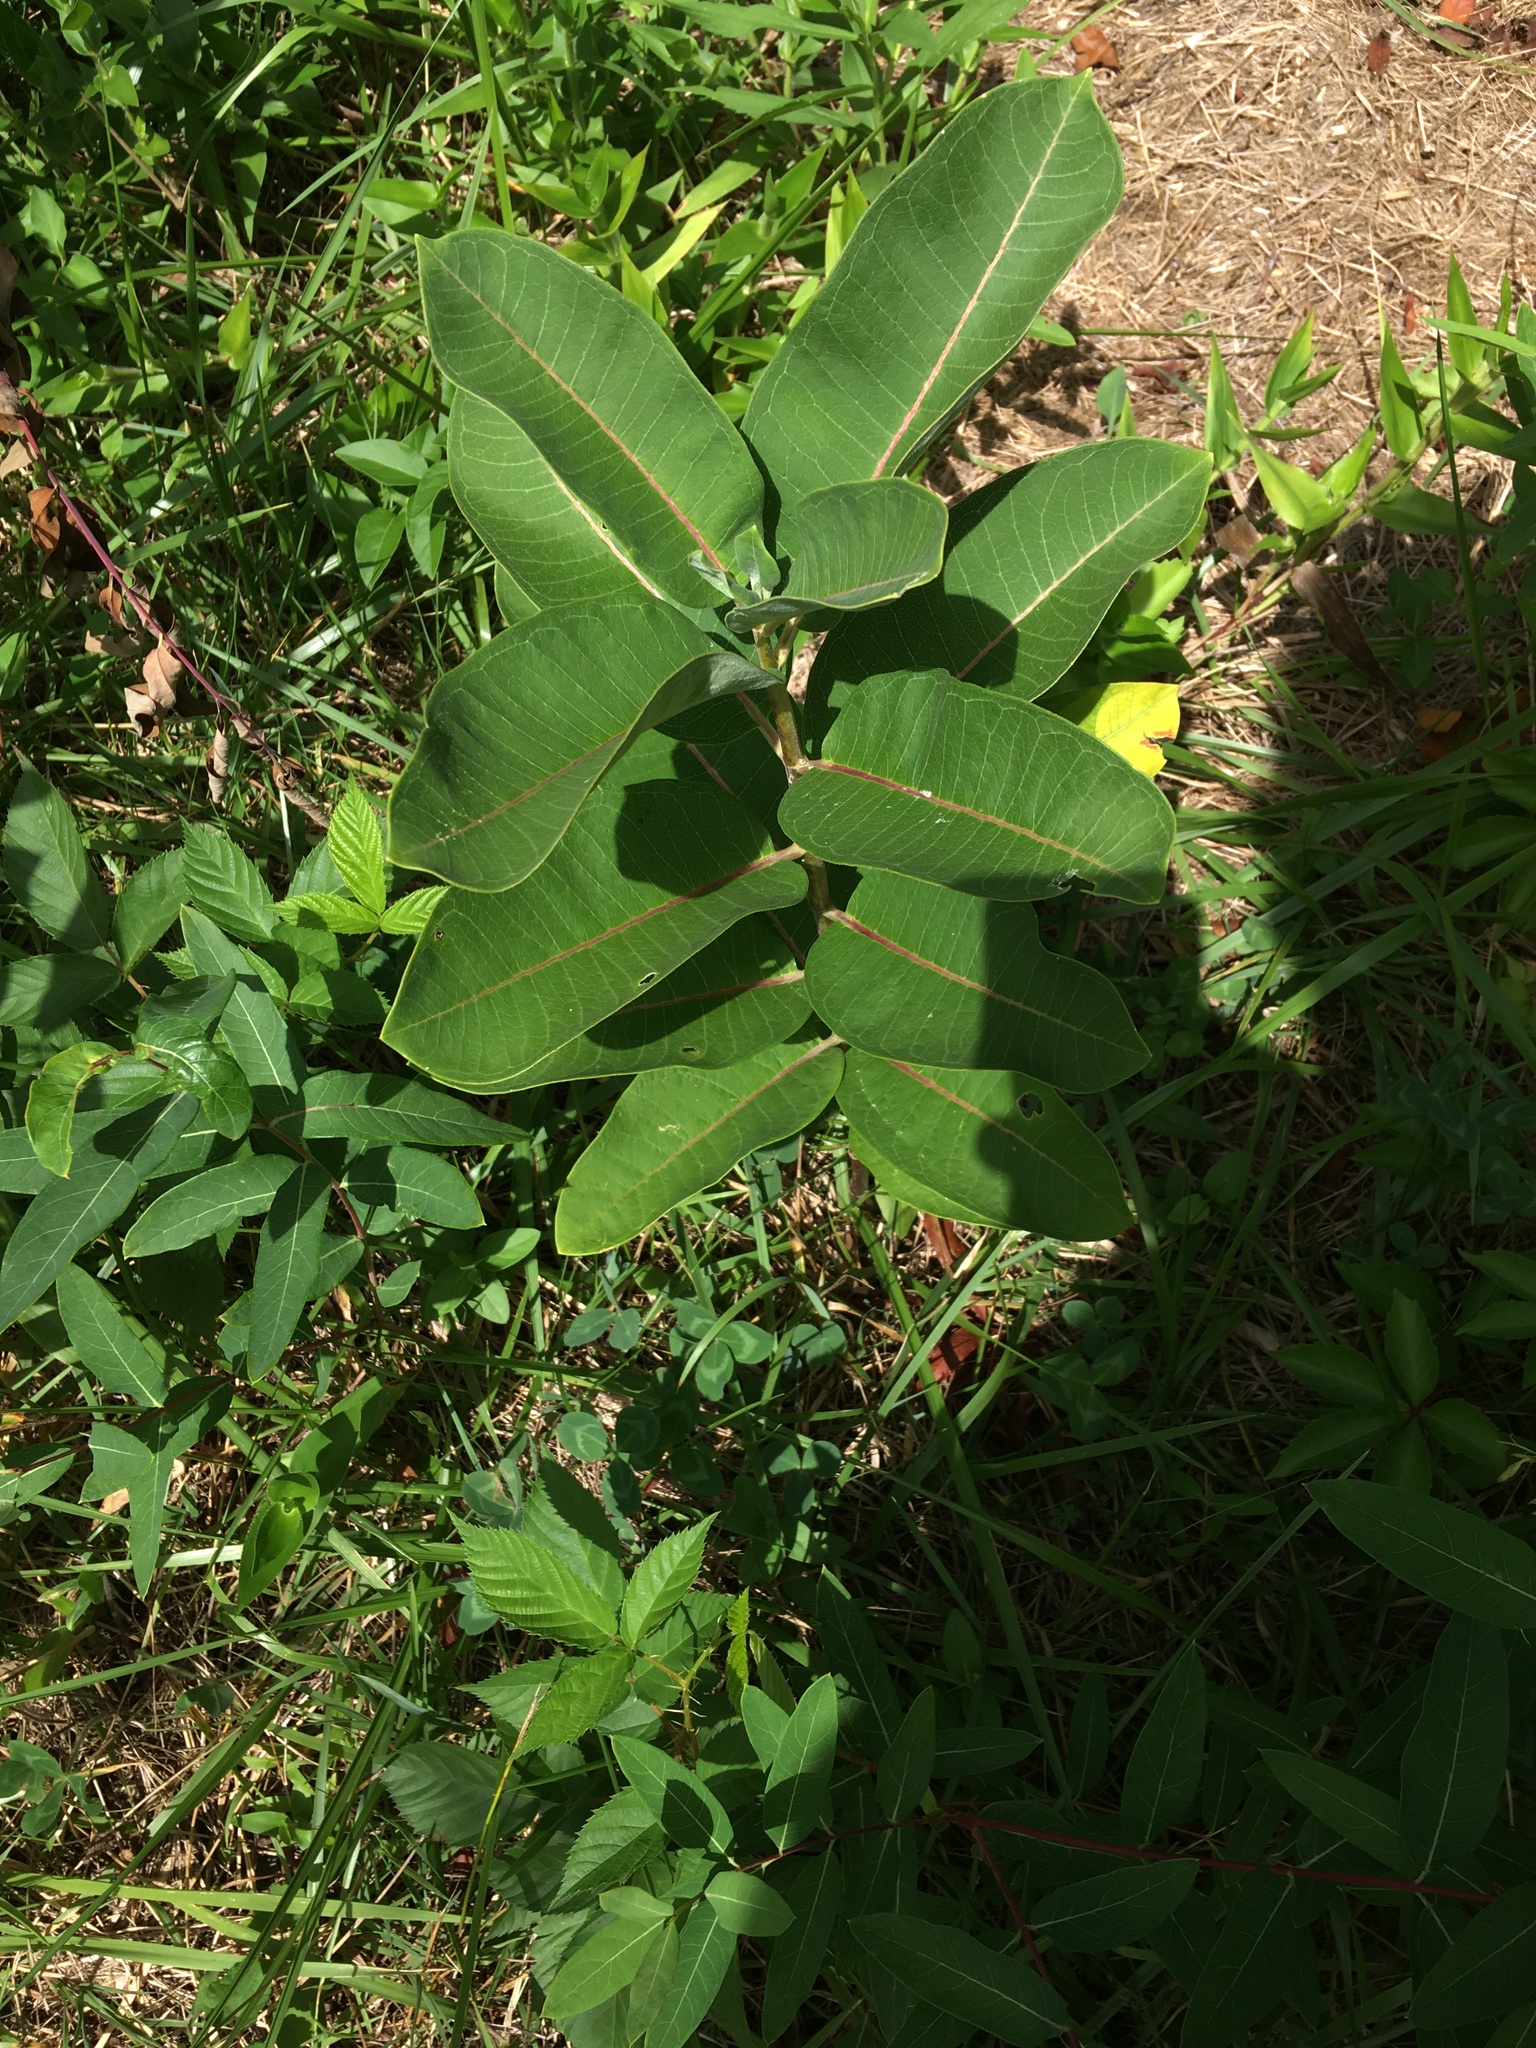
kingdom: Plantae
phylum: Tracheophyta
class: Magnoliopsida
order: Gentianales
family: Apocynaceae
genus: Asclepias
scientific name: Asclepias syriaca
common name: Common milkweed
